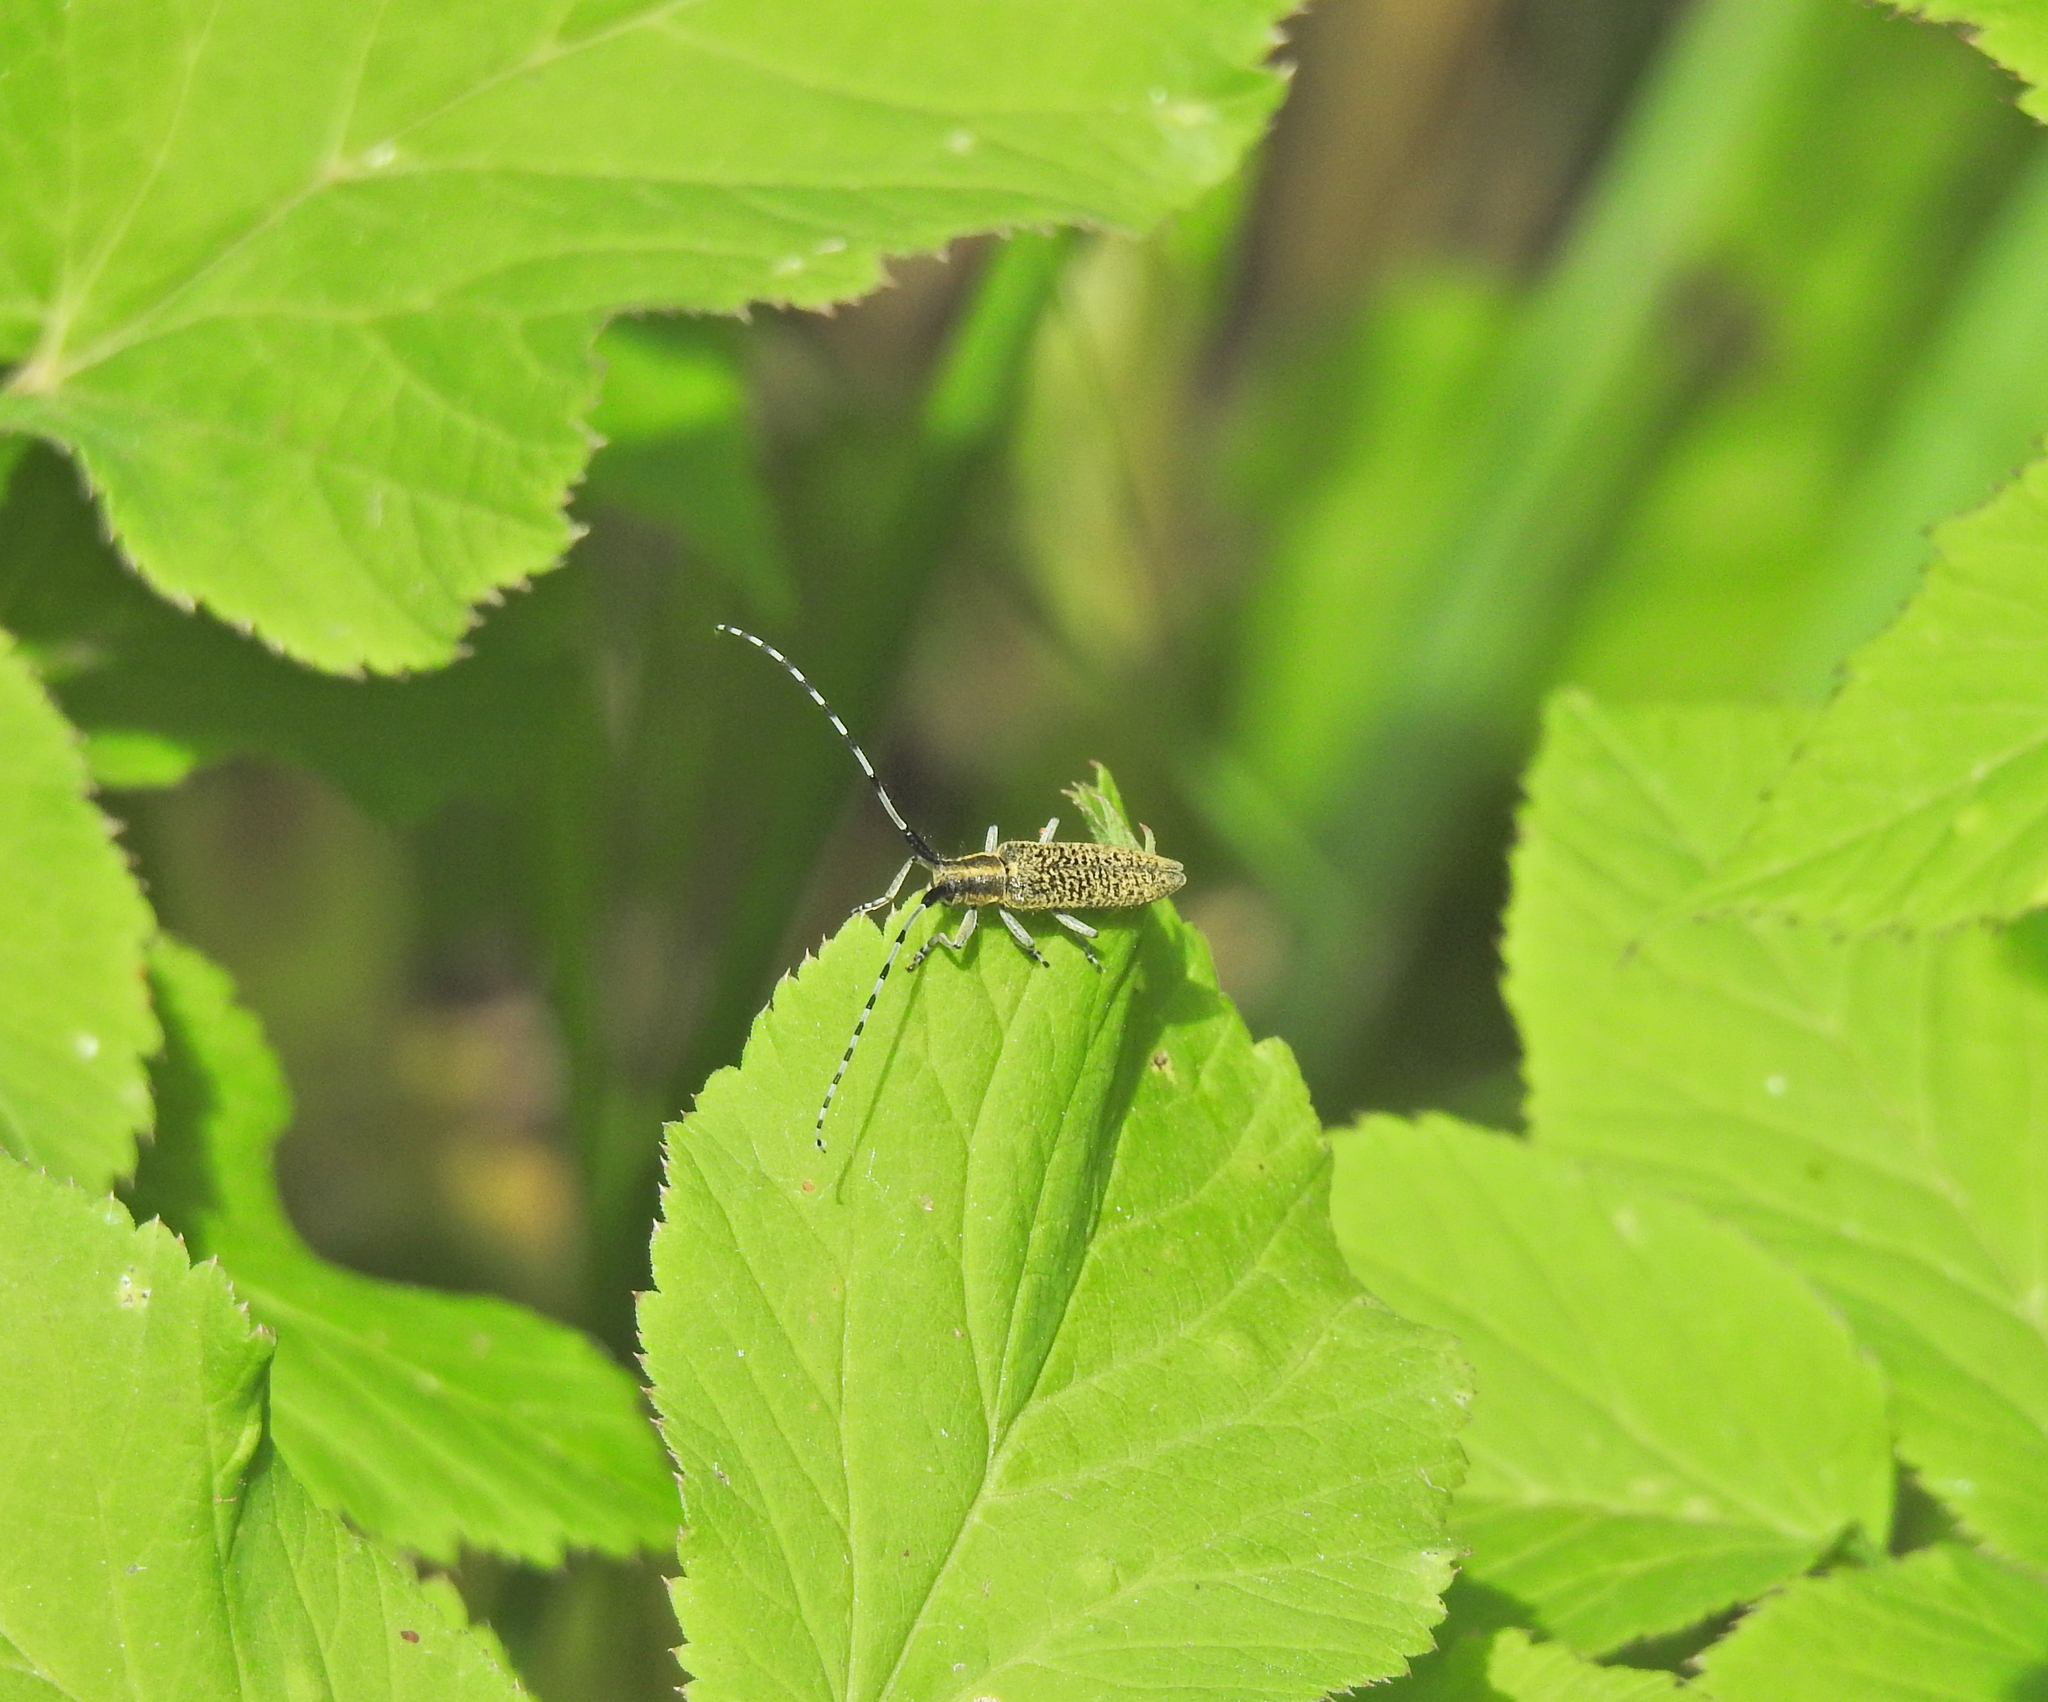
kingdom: Animalia
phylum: Arthropoda
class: Insecta
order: Coleoptera
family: Cerambycidae
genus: Agapanthia
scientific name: Agapanthia villosoviridescens
